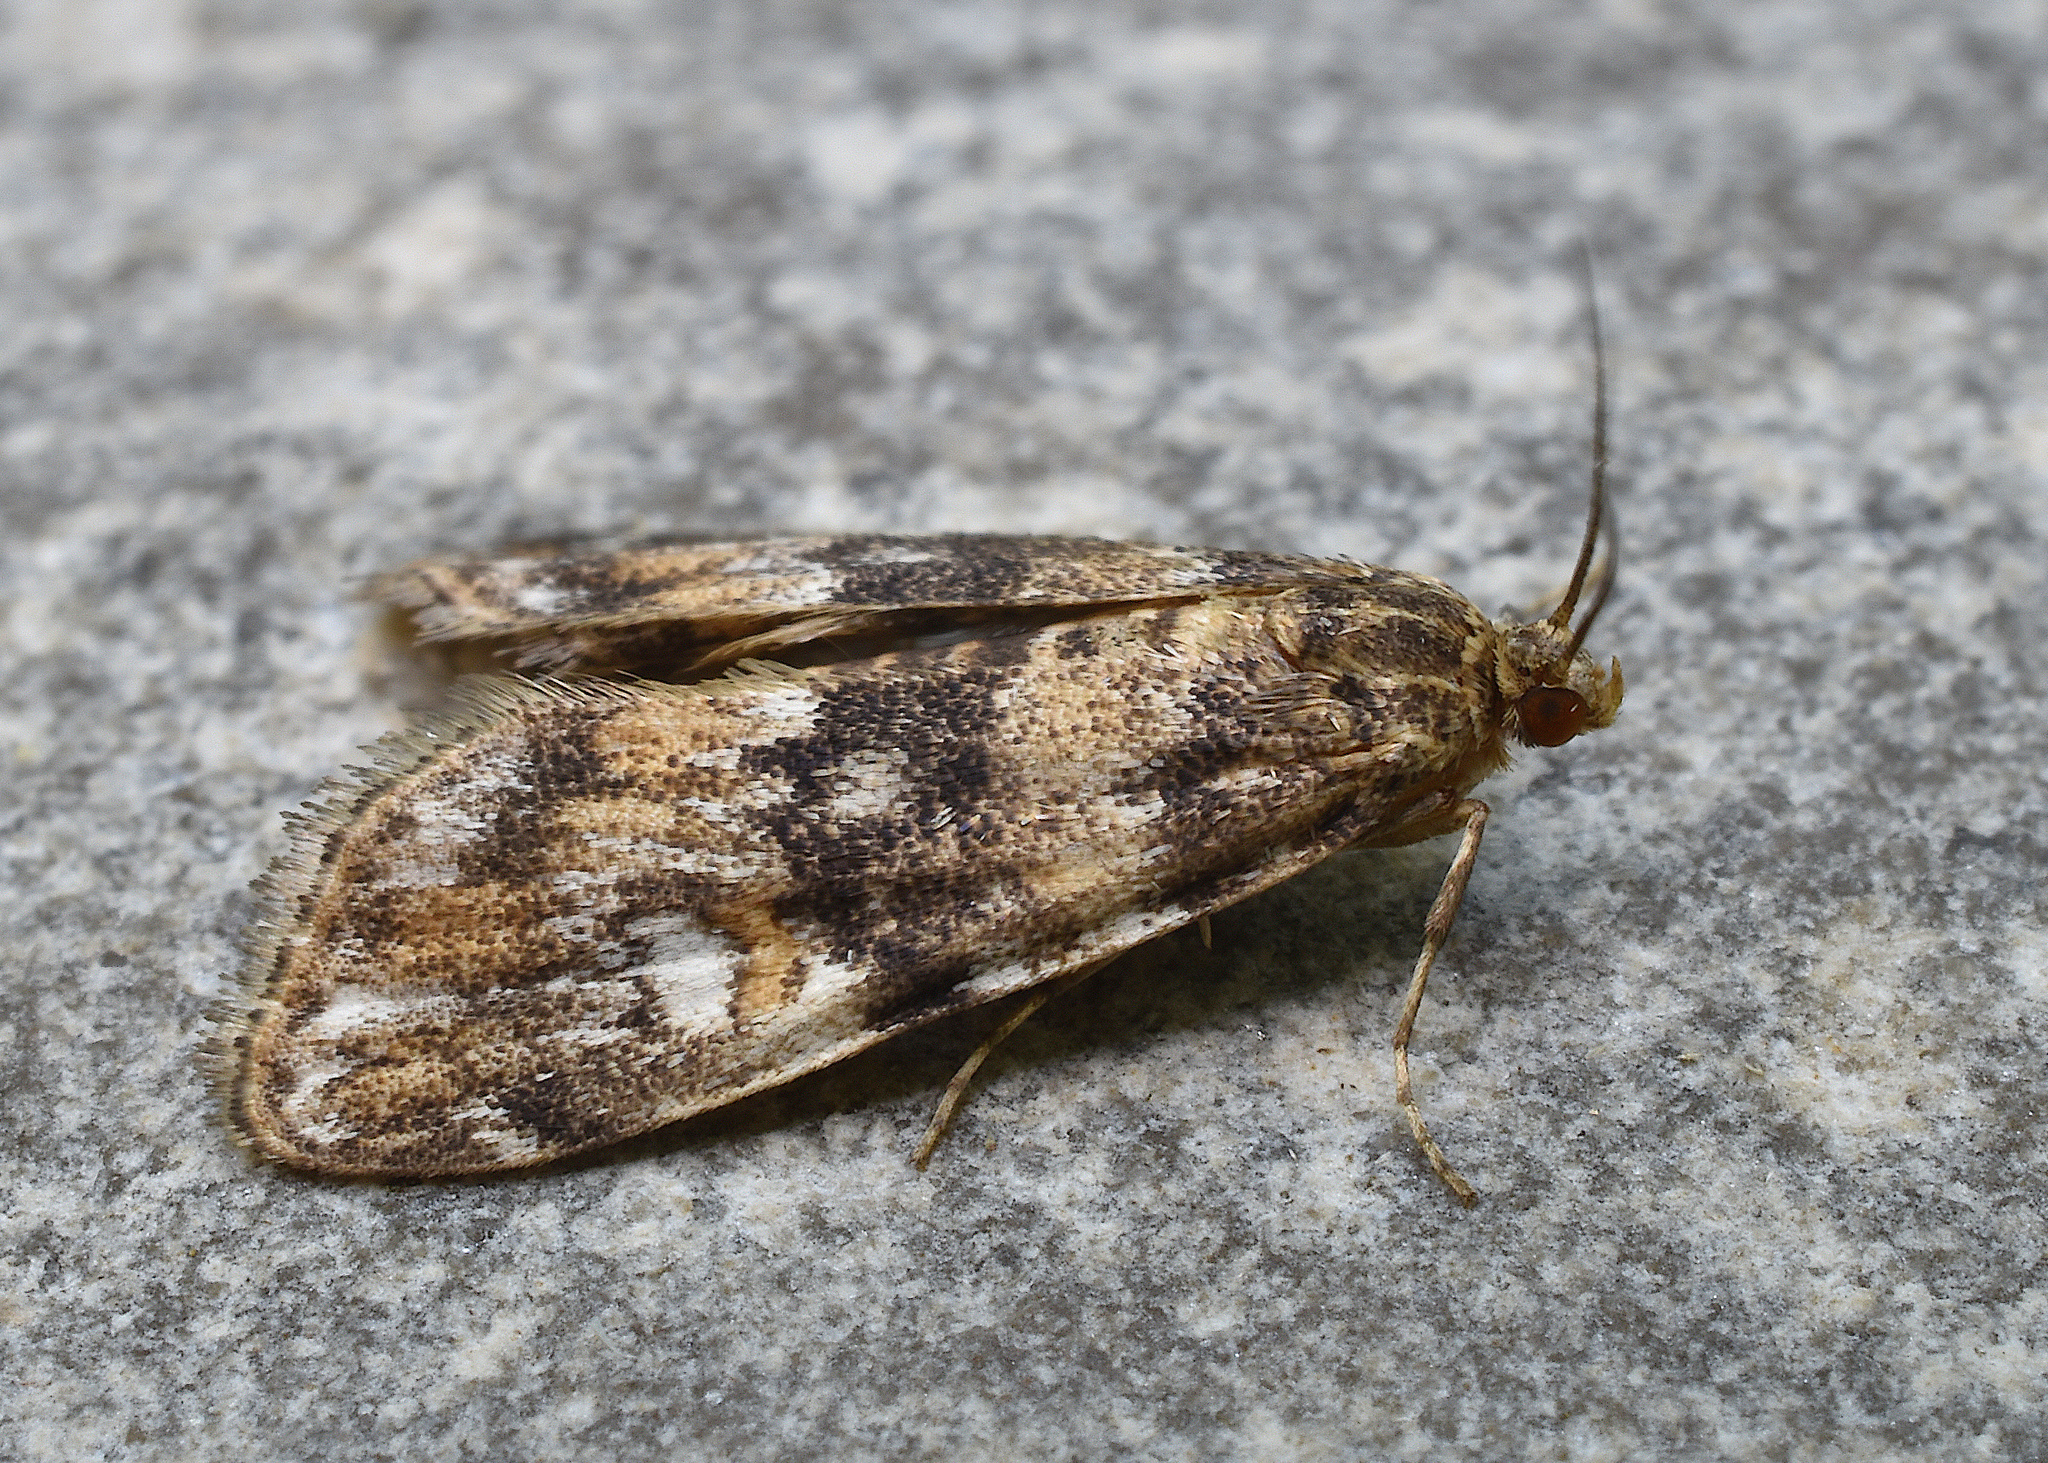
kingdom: Animalia
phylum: Arthropoda
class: Insecta
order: Lepidoptera
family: Crambidae
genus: Elophila
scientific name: Elophila obliteralis
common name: Waterlily leafcutter moth
